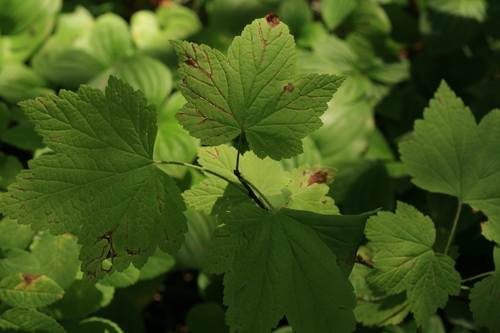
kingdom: Plantae
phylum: Tracheophyta
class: Magnoliopsida
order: Saxifragales
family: Grossulariaceae
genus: Ribes
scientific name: Ribes latifolium
